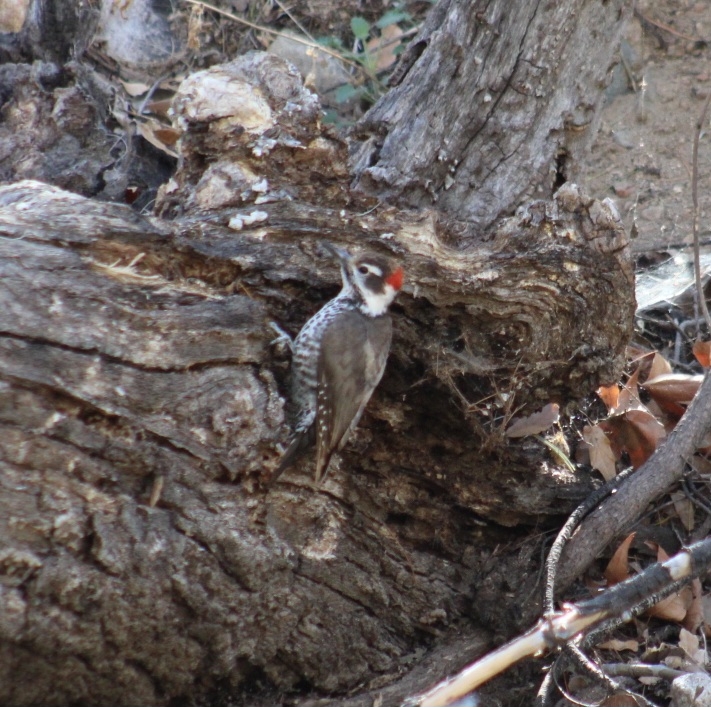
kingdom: Animalia
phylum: Chordata
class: Aves
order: Piciformes
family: Picidae
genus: Leuconotopicus
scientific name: Leuconotopicus arizonae
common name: Arizona woodpecker
